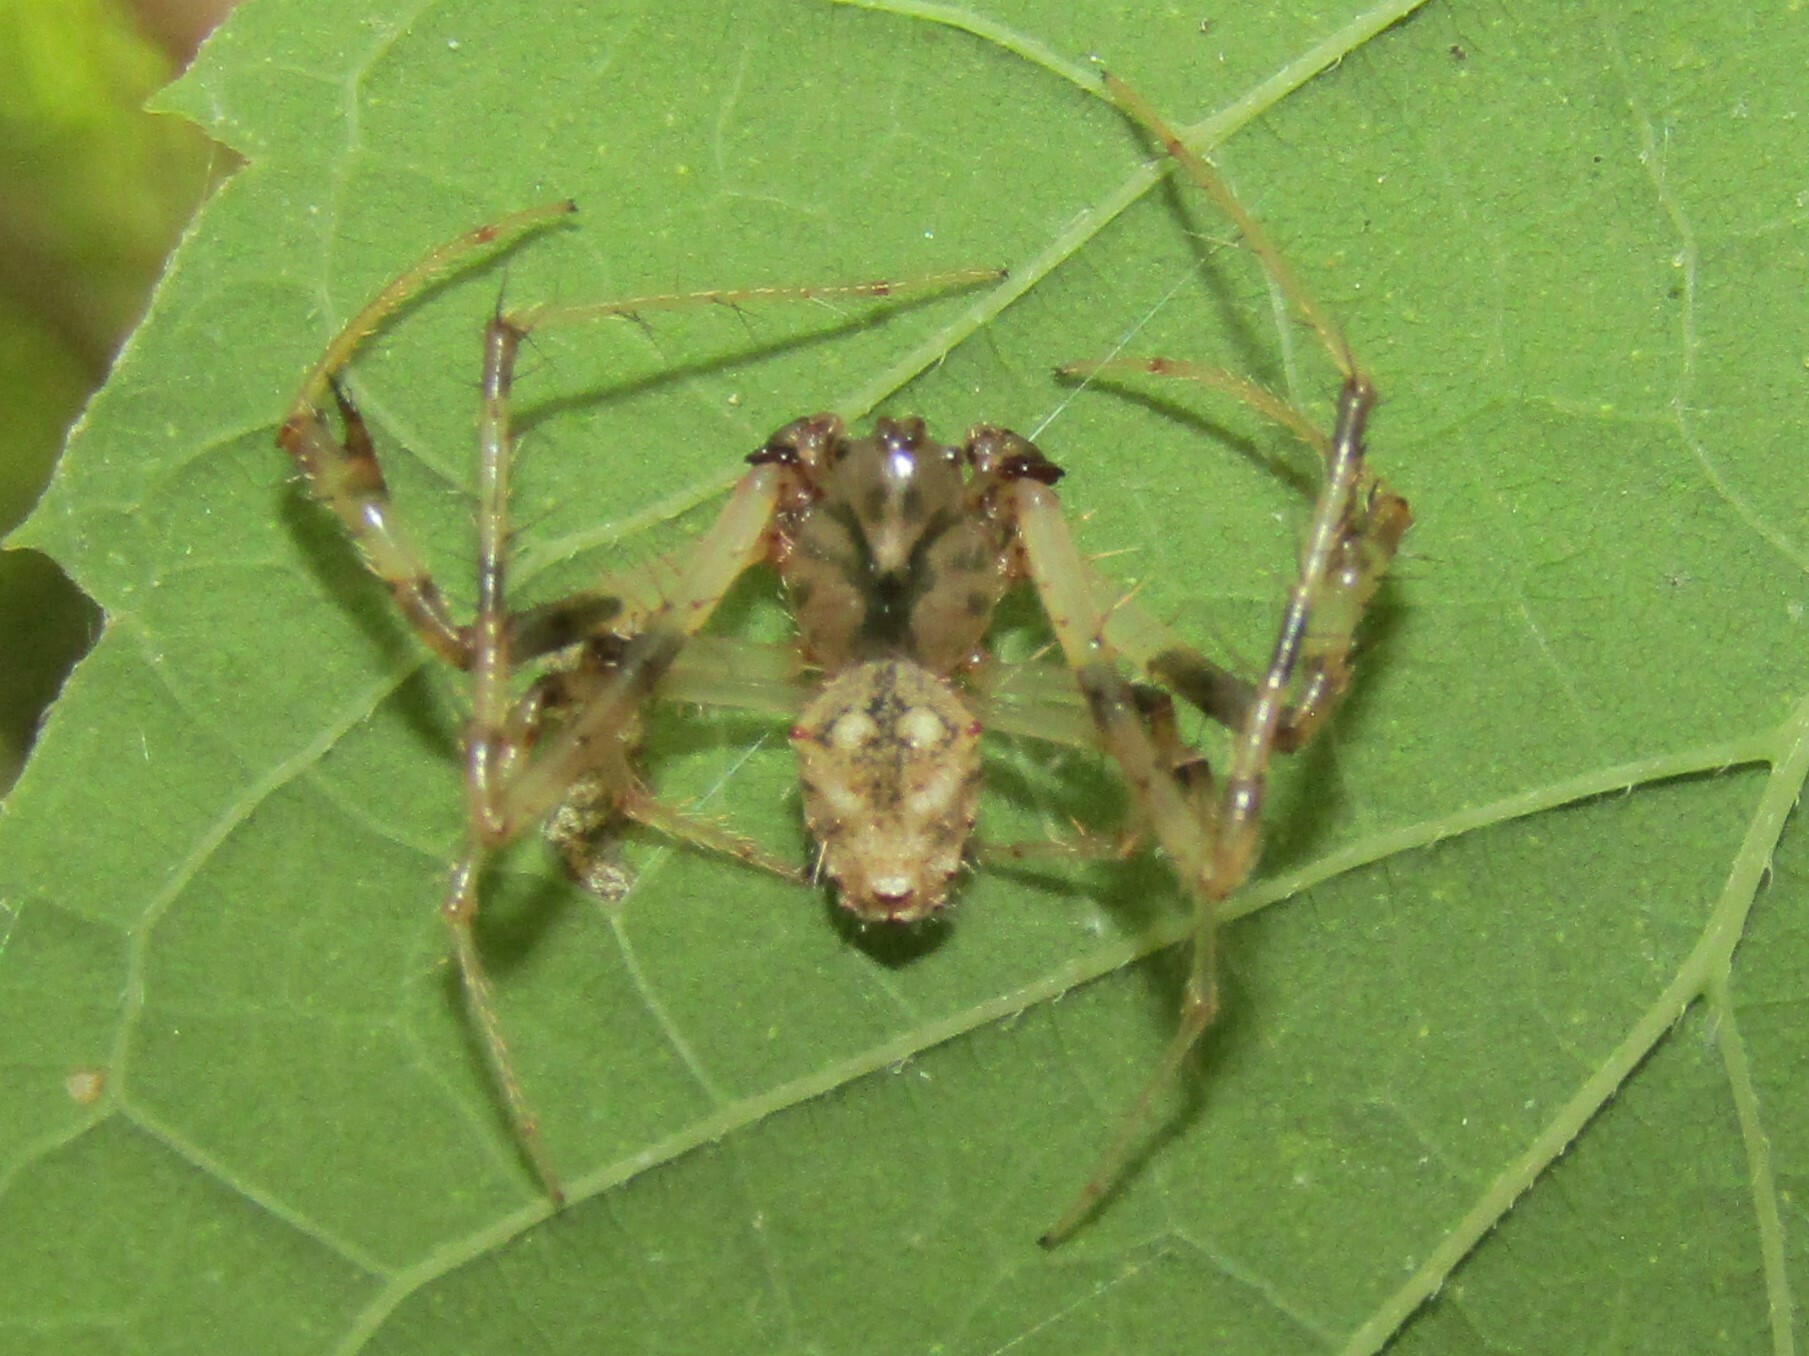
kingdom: Animalia
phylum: Arthropoda
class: Arachnida
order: Araneae
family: Araneidae
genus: Verrucosa
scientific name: Verrucosa arenata
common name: Orb weavers
